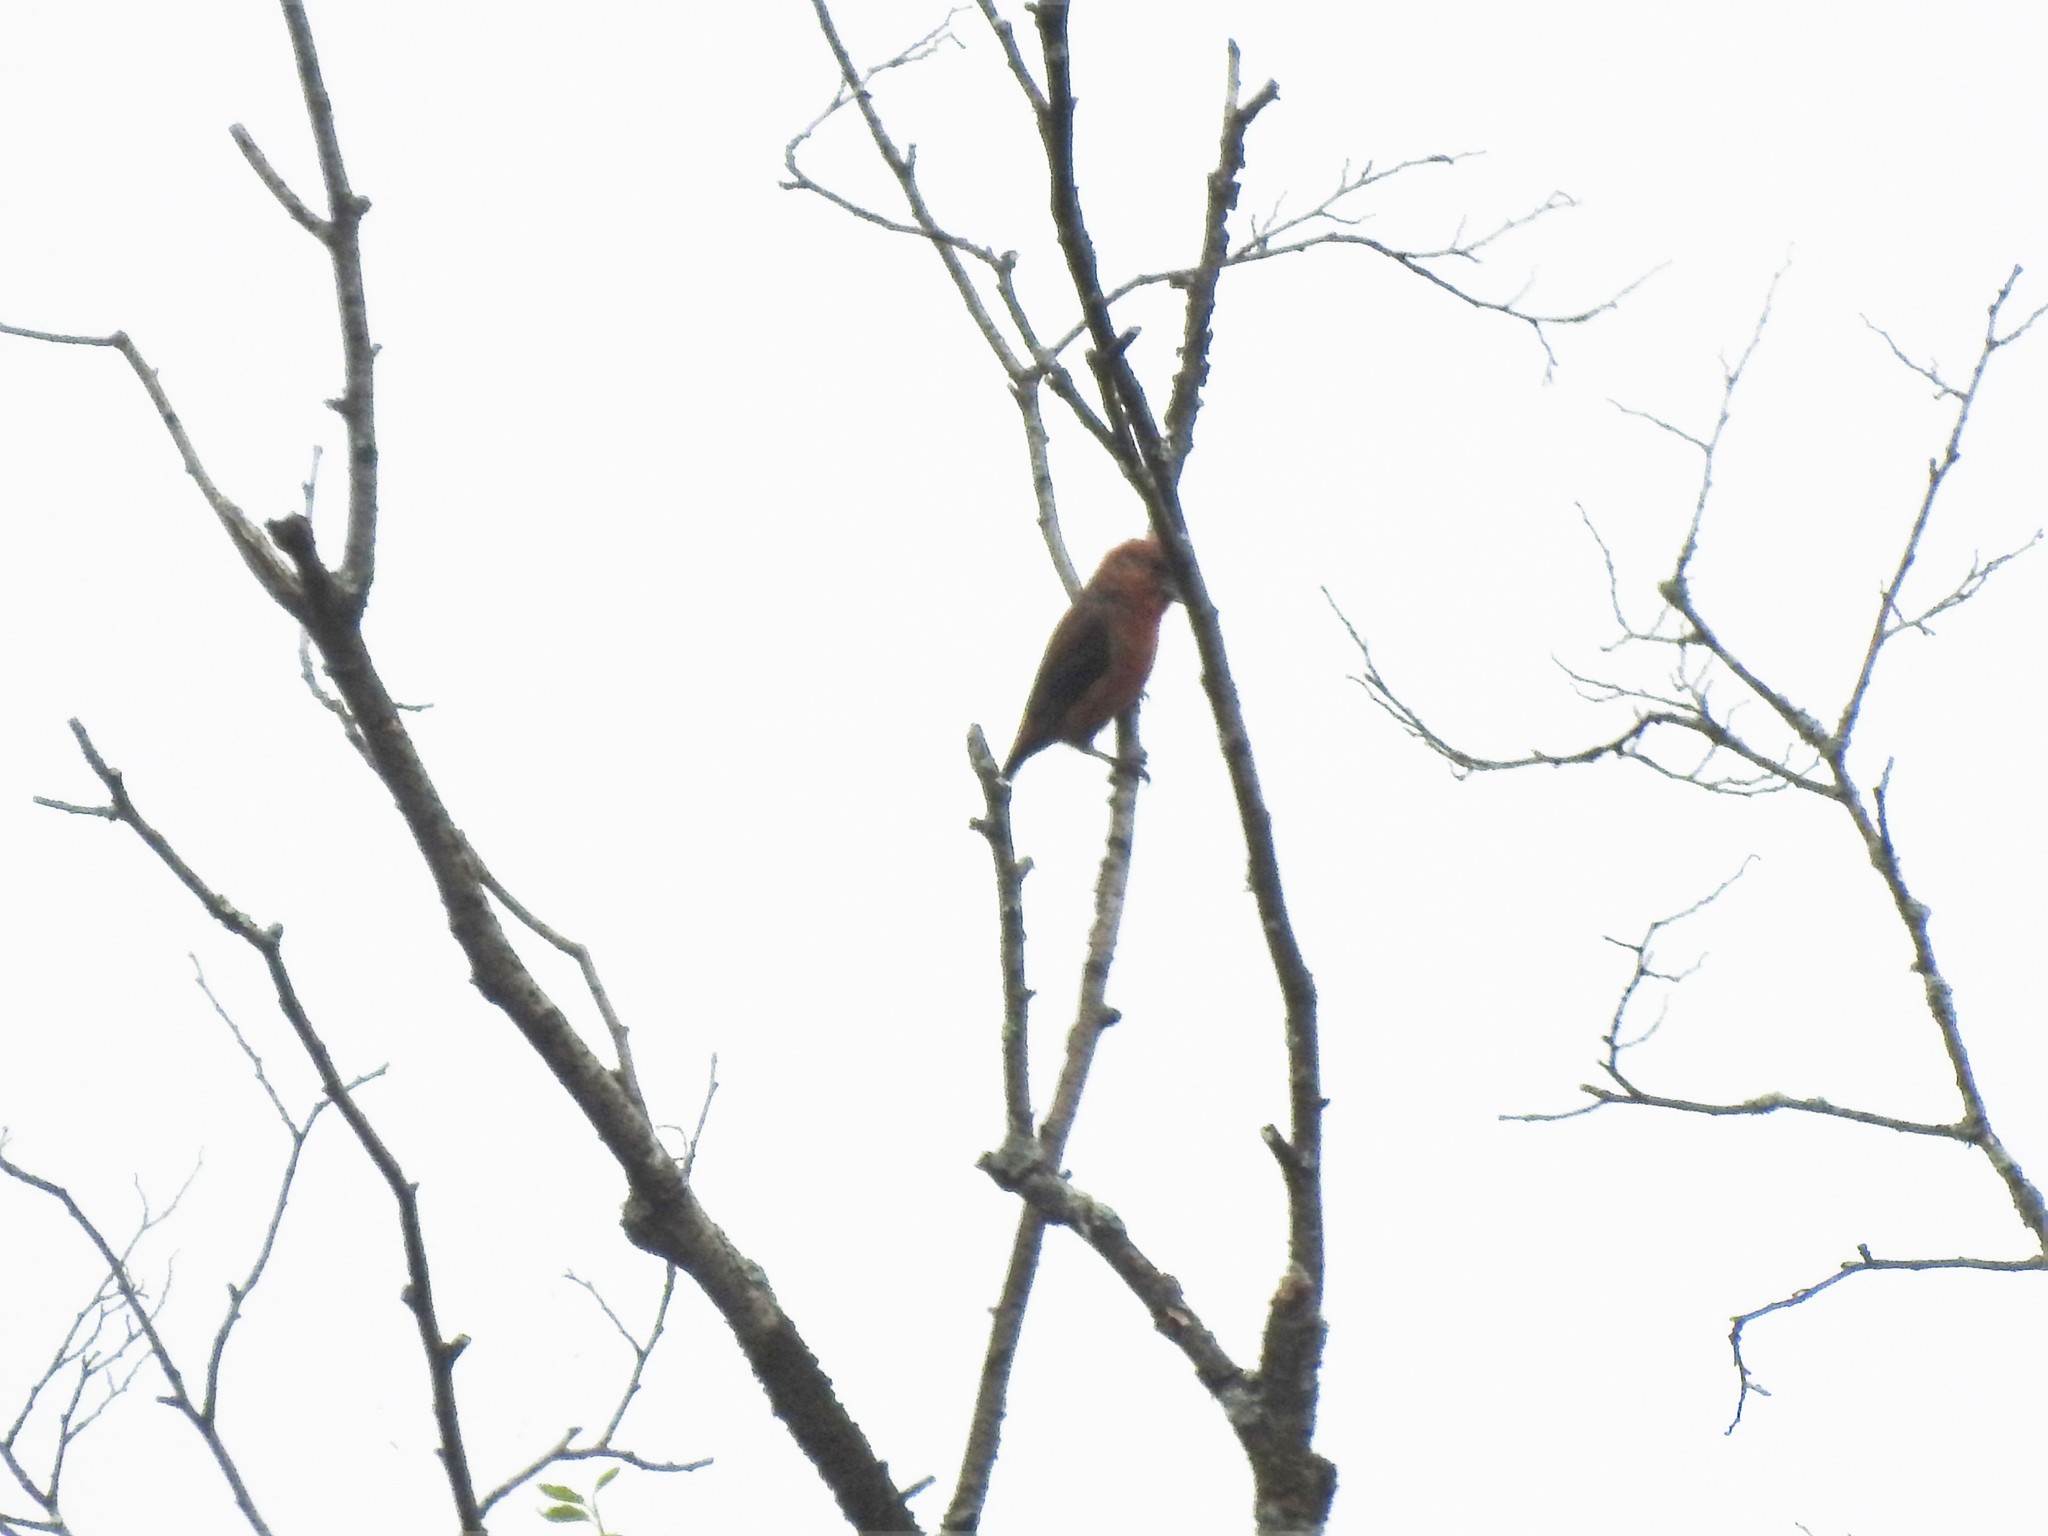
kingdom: Animalia
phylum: Chordata
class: Aves
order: Passeriformes
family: Fringillidae
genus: Loxia
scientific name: Loxia curvirostra
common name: Red crossbill
